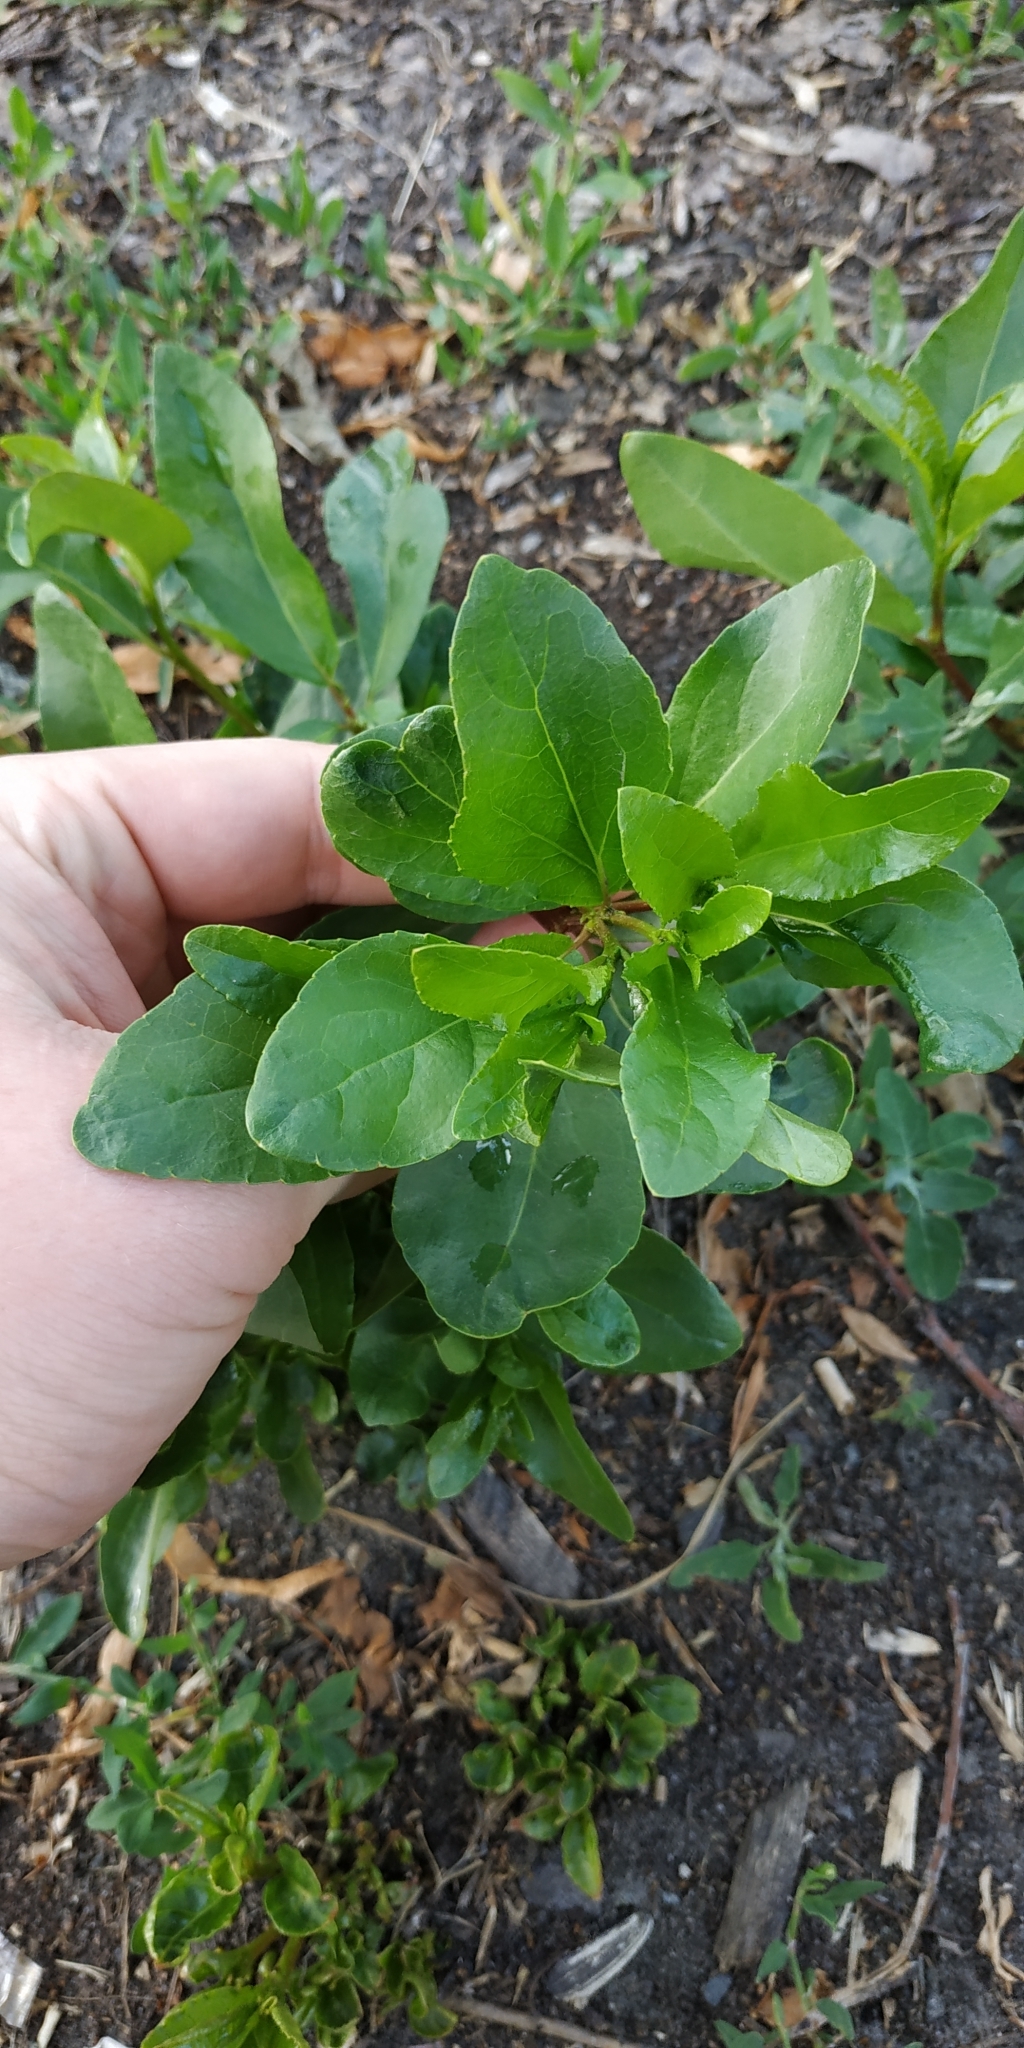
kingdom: Plantae
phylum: Tracheophyta
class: Magnoliopsida
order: Malpighiales
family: Salicaceae
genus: Populus
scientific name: Populus sibirica
